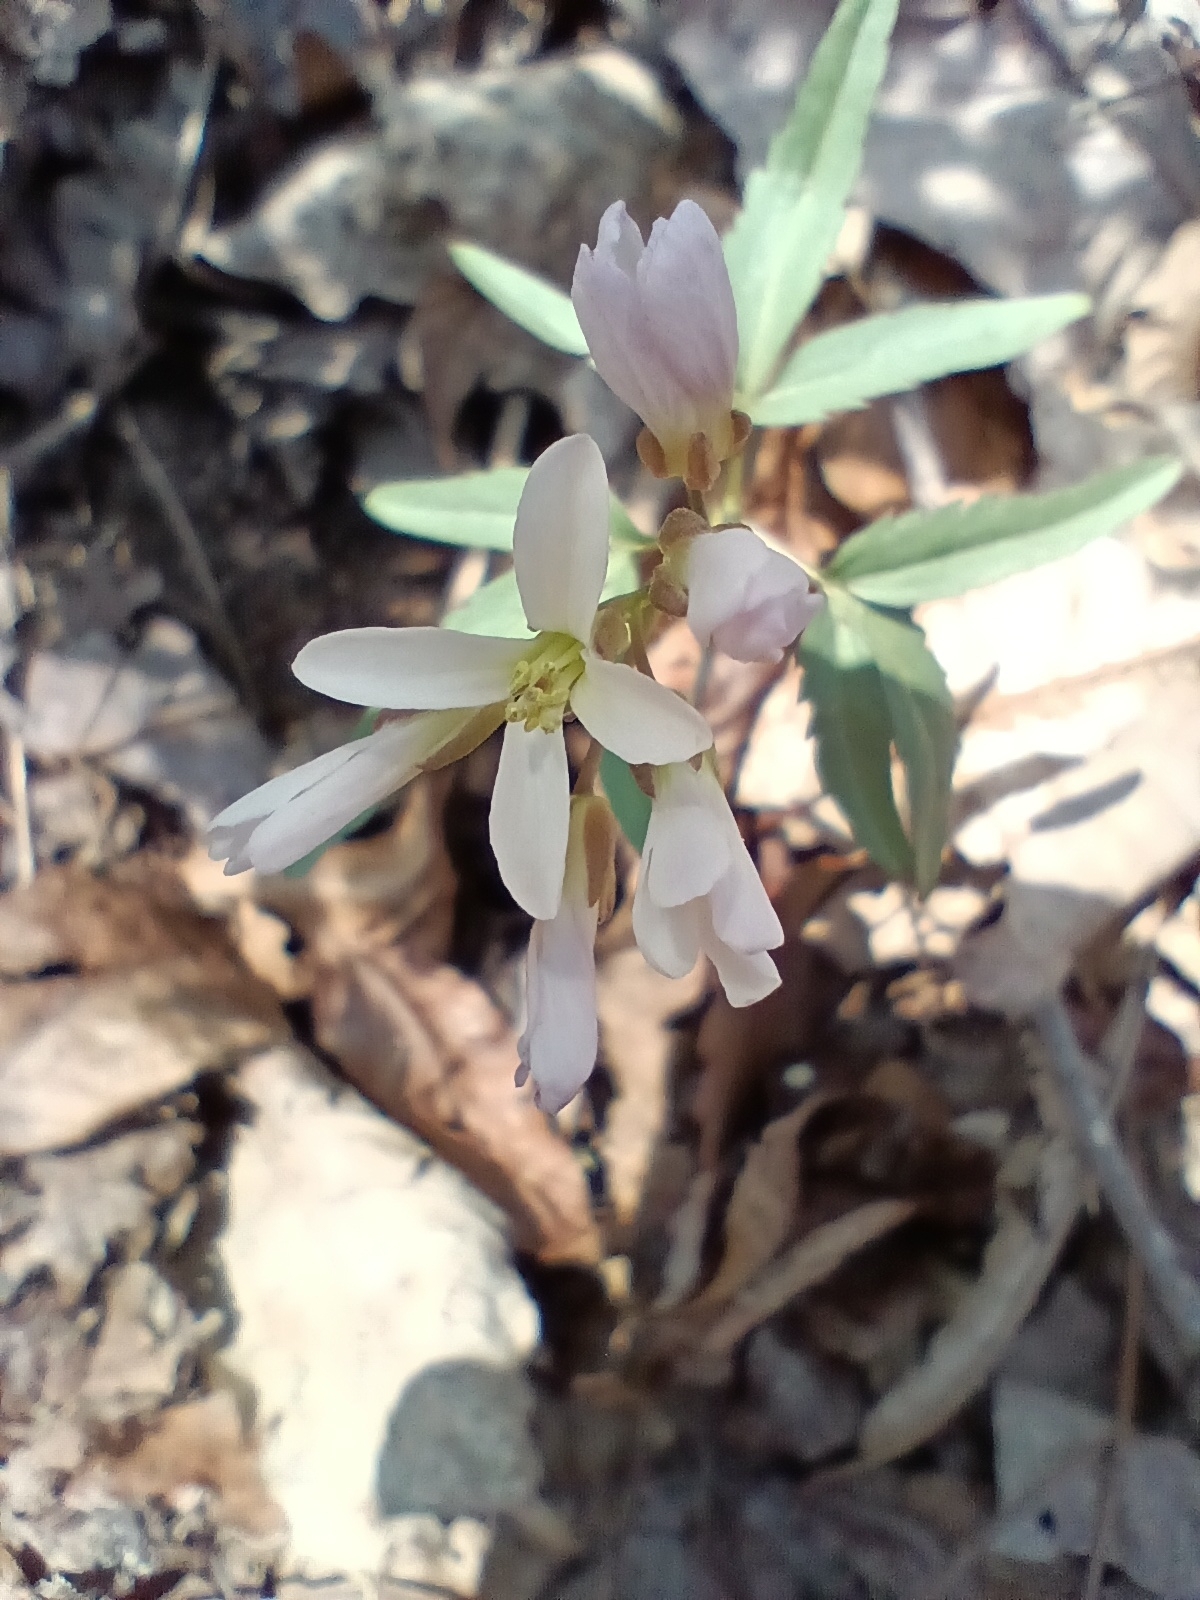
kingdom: Plantae
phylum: Tracheophyta
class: Magnoliopsida
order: Brassicales
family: Brassicaceae
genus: Cardamine
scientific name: Cardamine concatenata
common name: Cut-leaf toothcup
